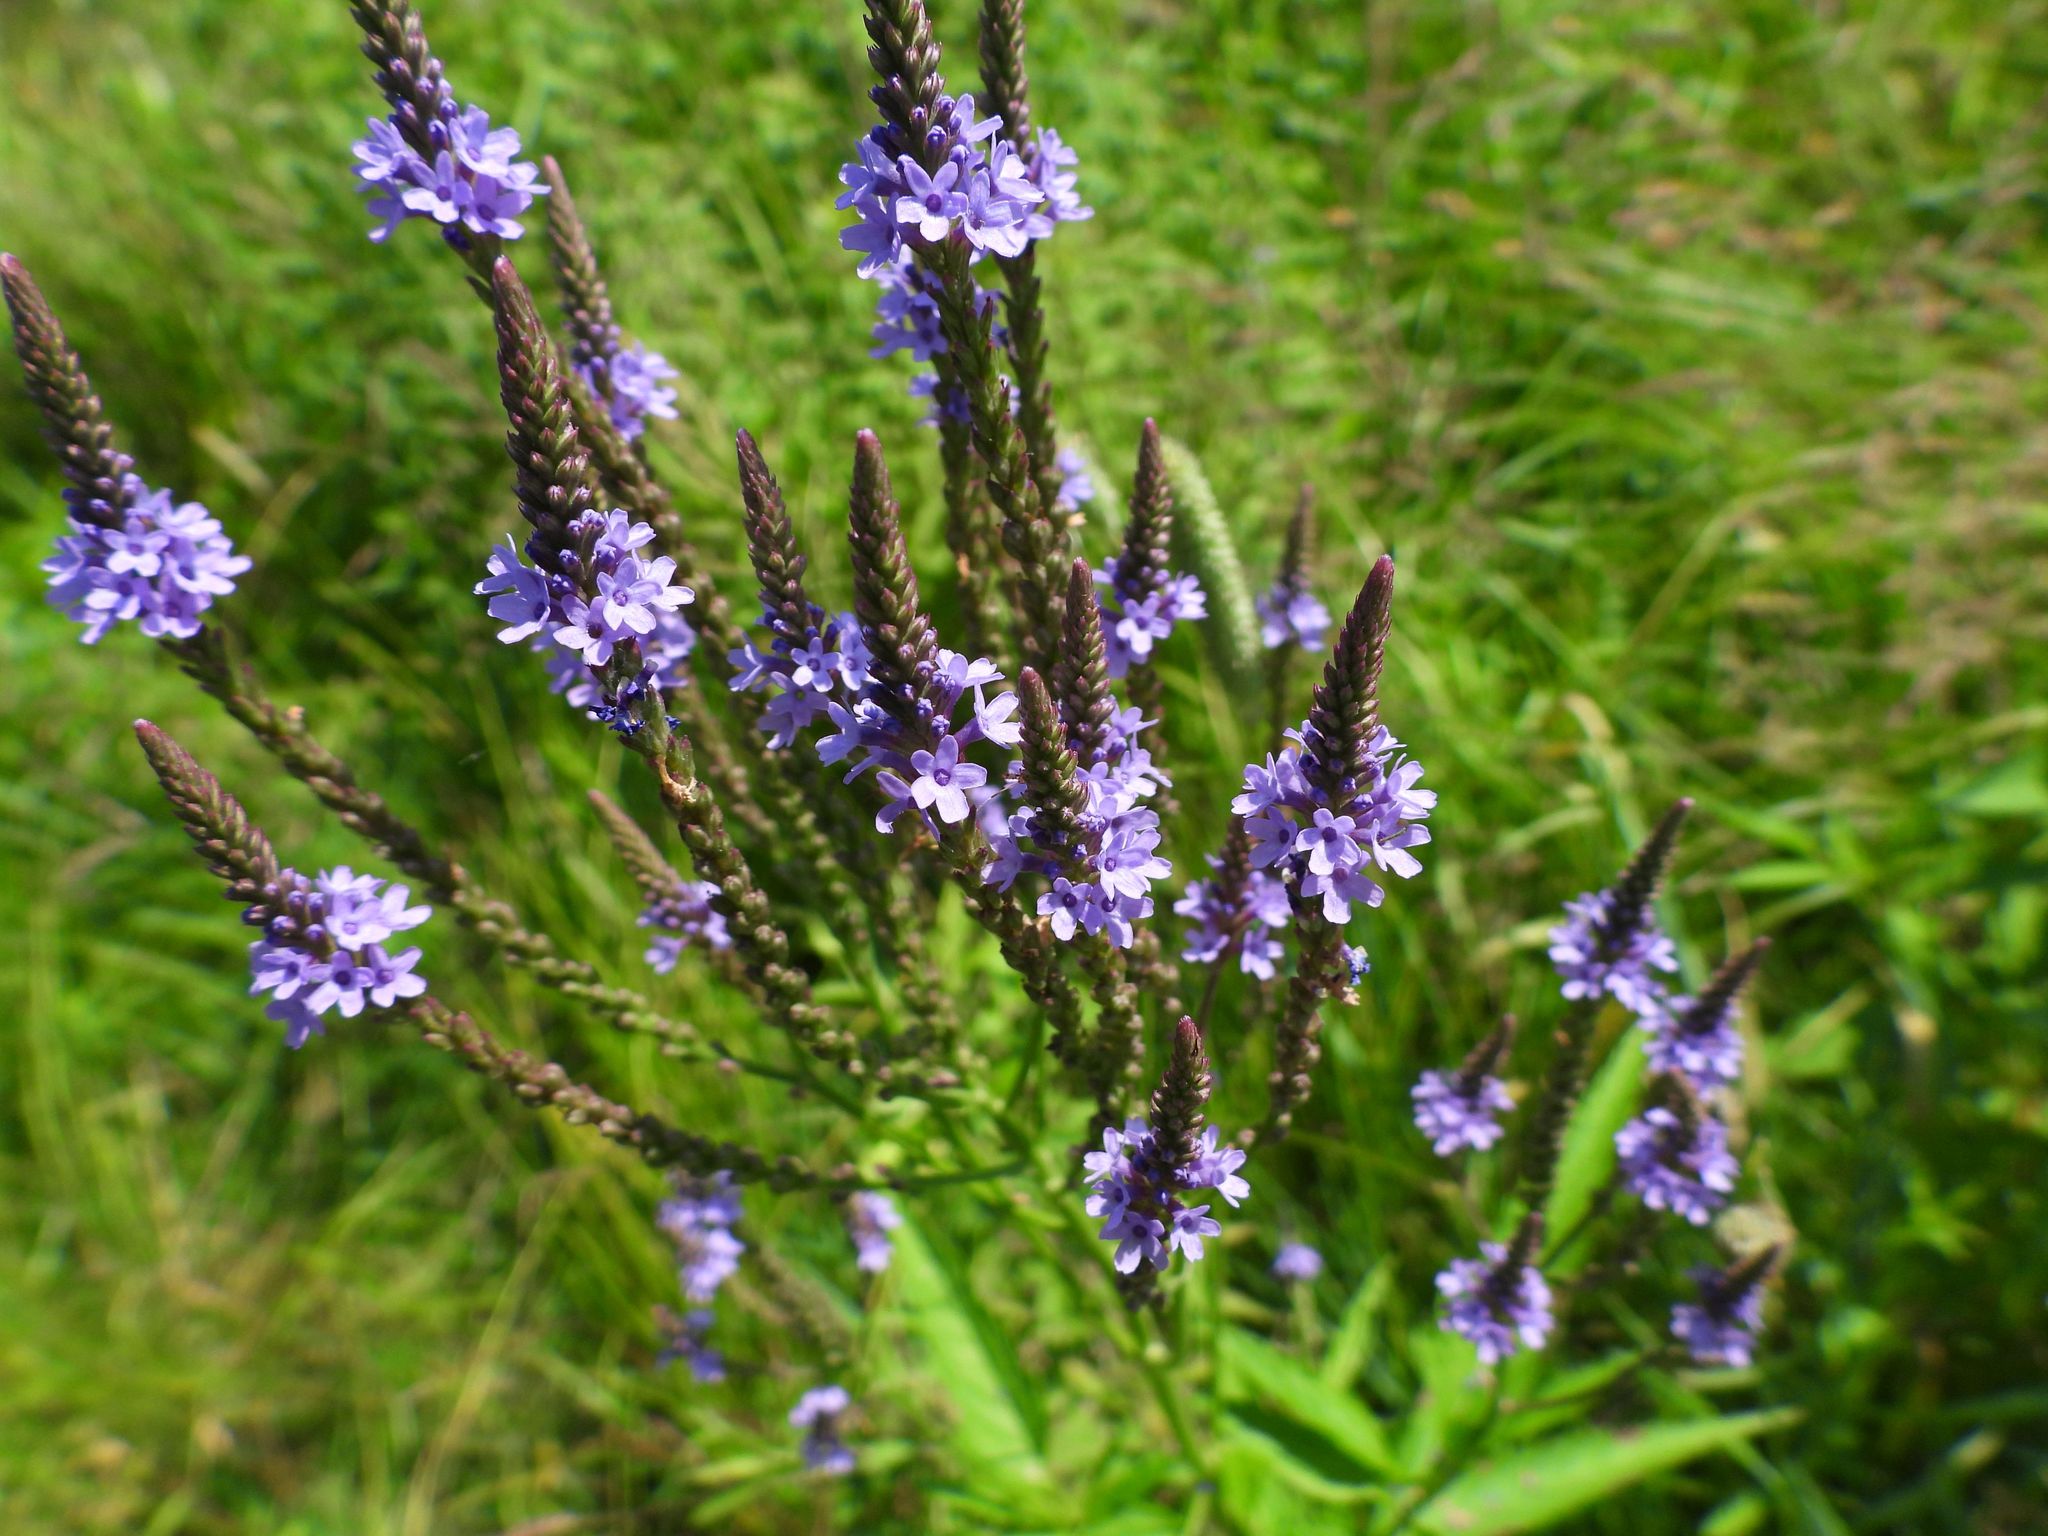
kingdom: Plantae
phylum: Tracheophyta
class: Magnoliopsida
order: Lamiales
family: Verbenaceae
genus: Verbena
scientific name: Verbena hastata
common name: American blue vervain
